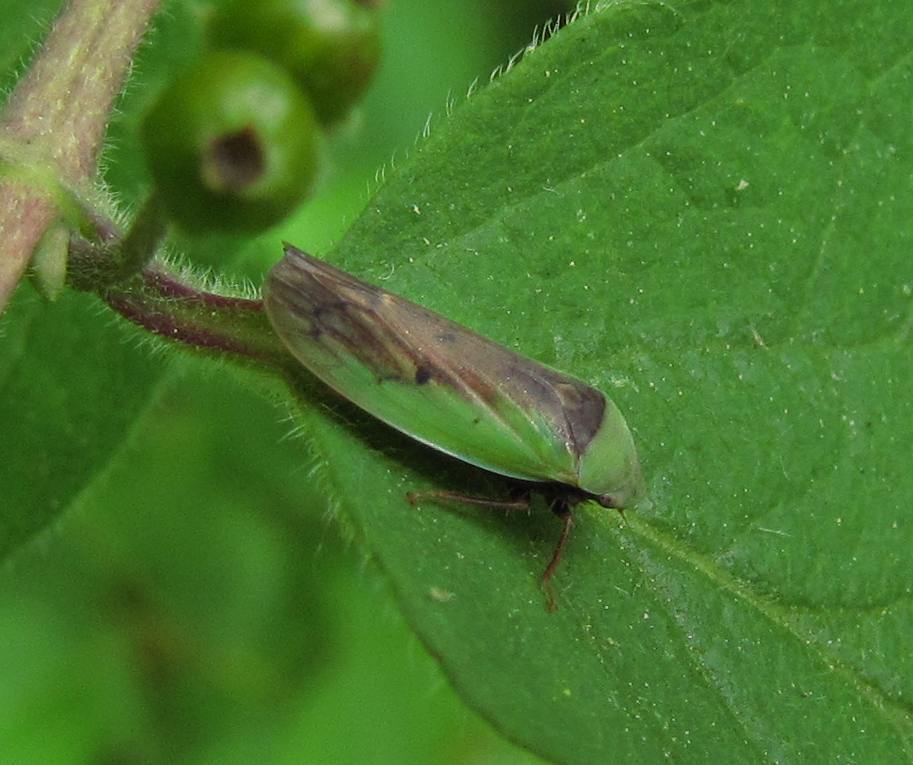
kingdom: Animalia
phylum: Arthropoda
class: Insecta
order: Hemiptera
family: Cicadellidae
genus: Ponana
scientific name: Ponana pectoralis
